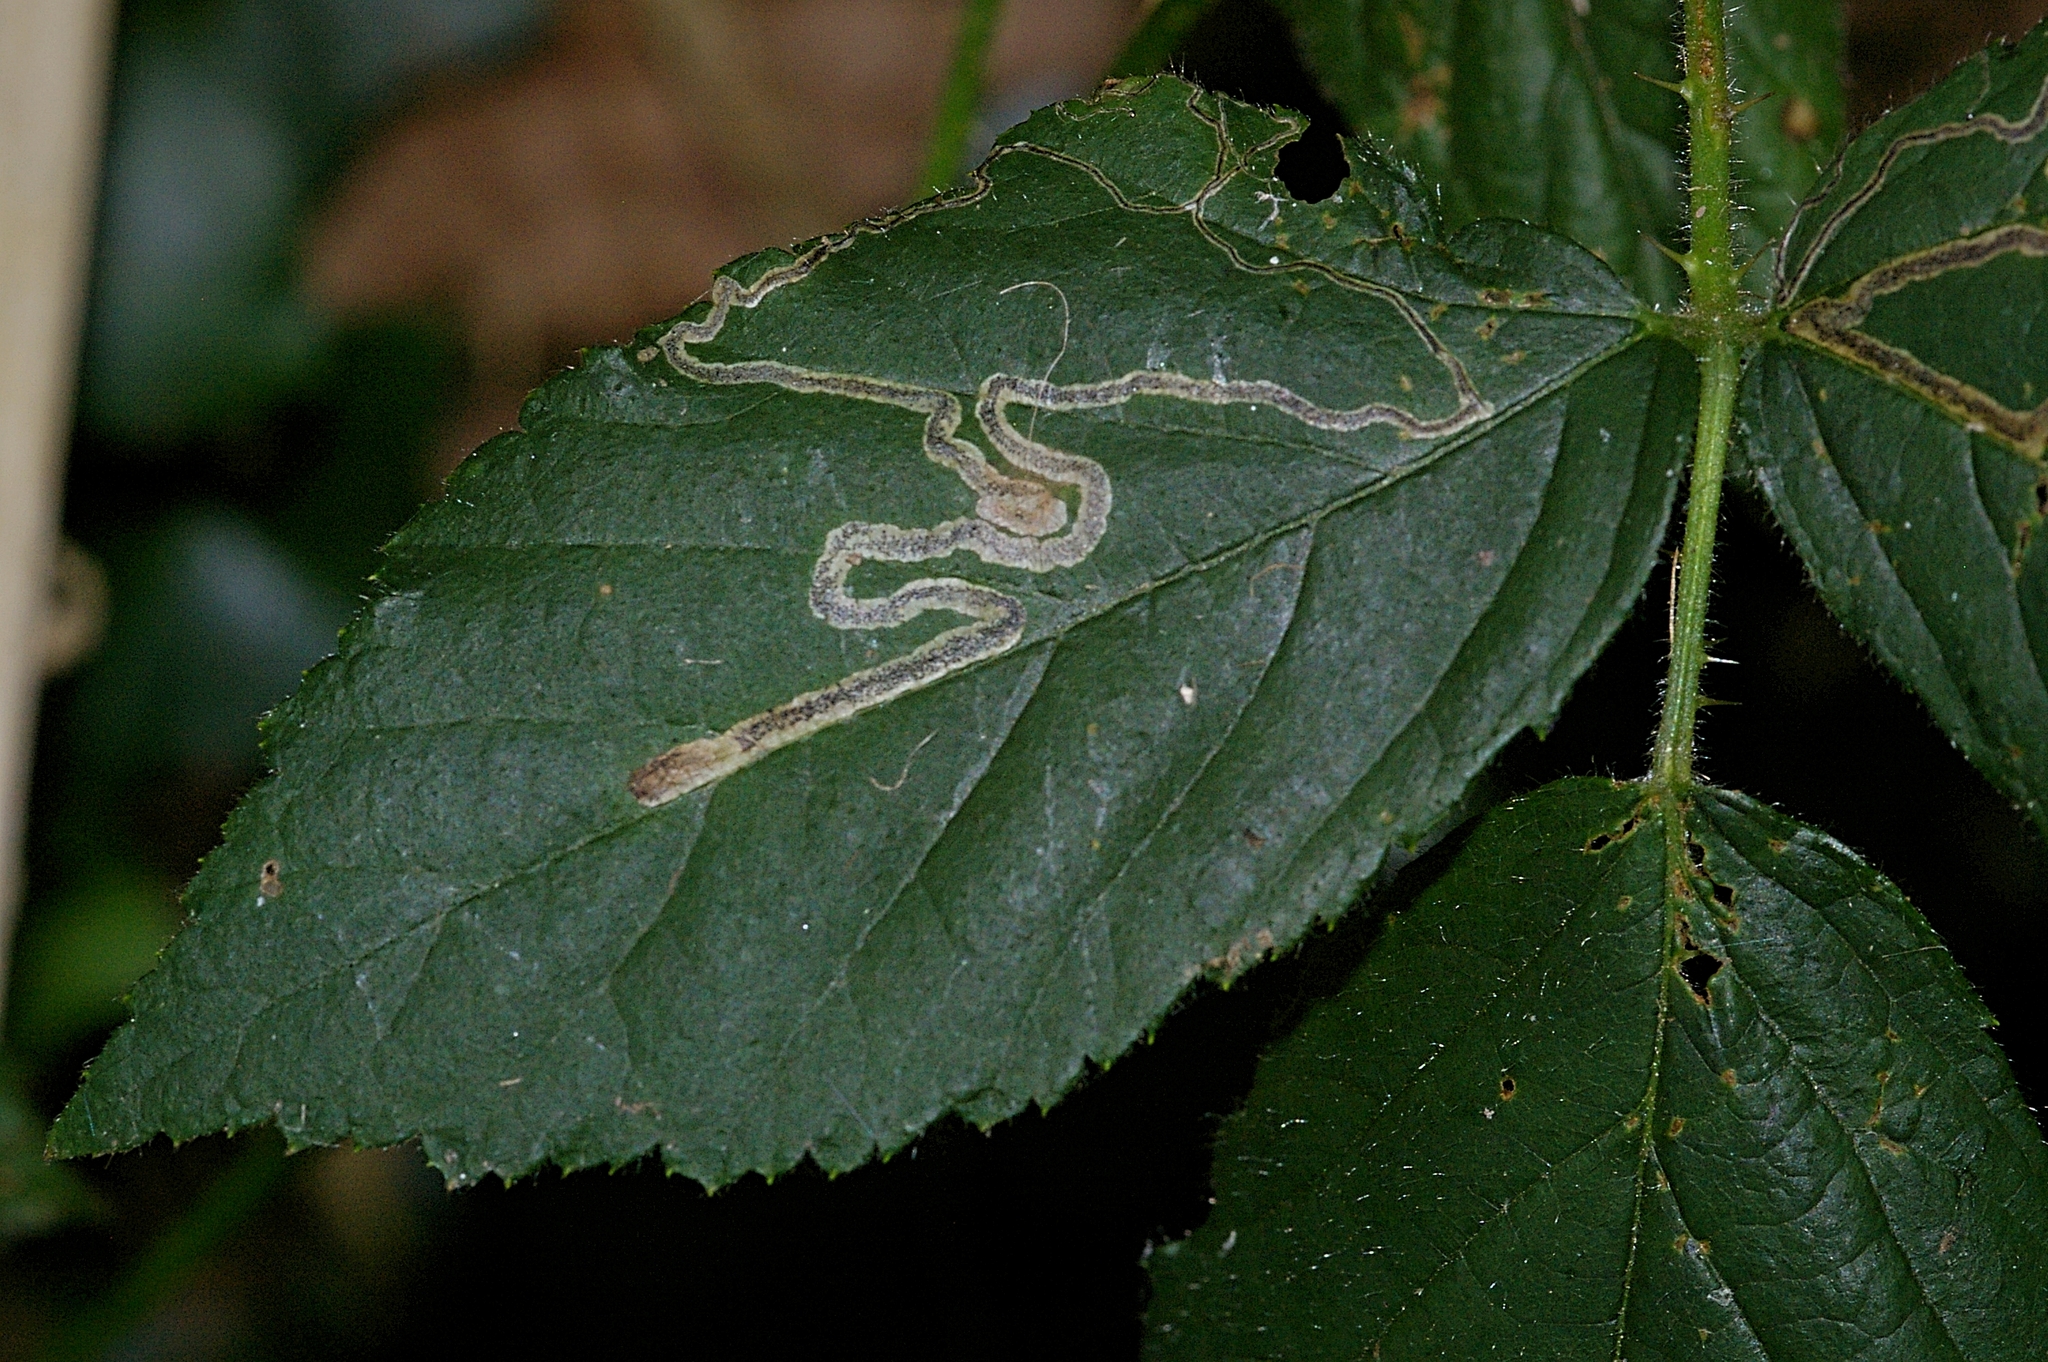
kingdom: Animalia
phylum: Arthropoda
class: Insecta
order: Lepidoptera
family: Nepticulidae
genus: Stigmella
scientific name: Stigmella aurella
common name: Golden pigmy
